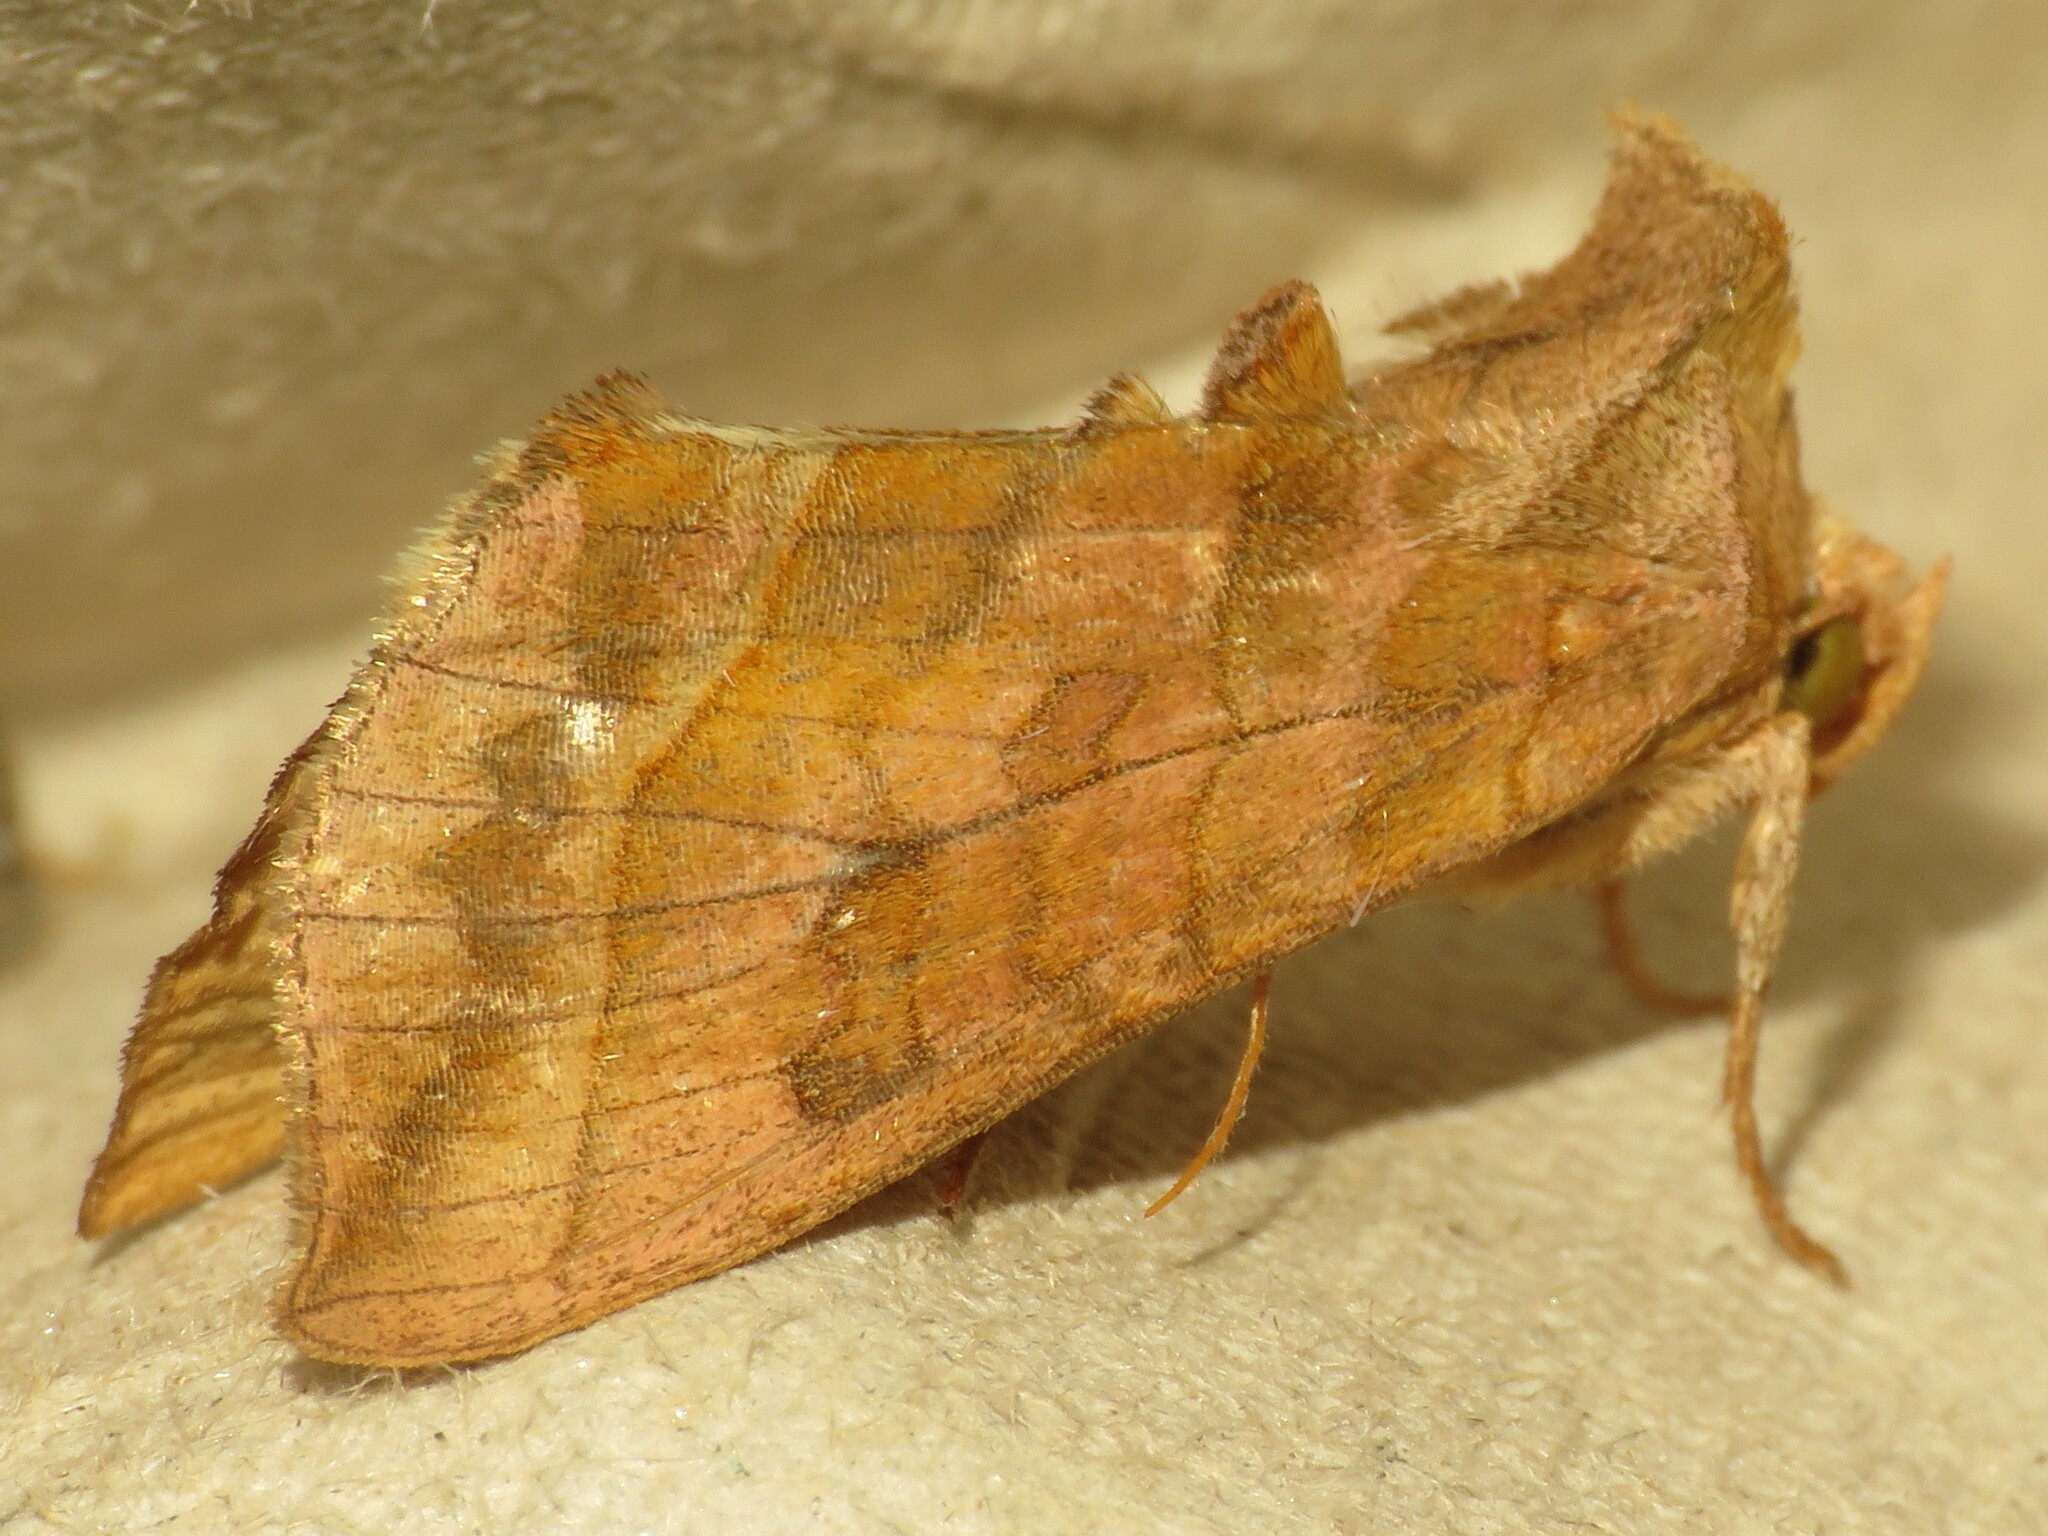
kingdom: Animalia
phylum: Arthropoda
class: Insecta
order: Lepidoptera
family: Noctuidae
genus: Diachrysia
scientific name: Diachrysia aereoides
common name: Dark-spotted looper moth
